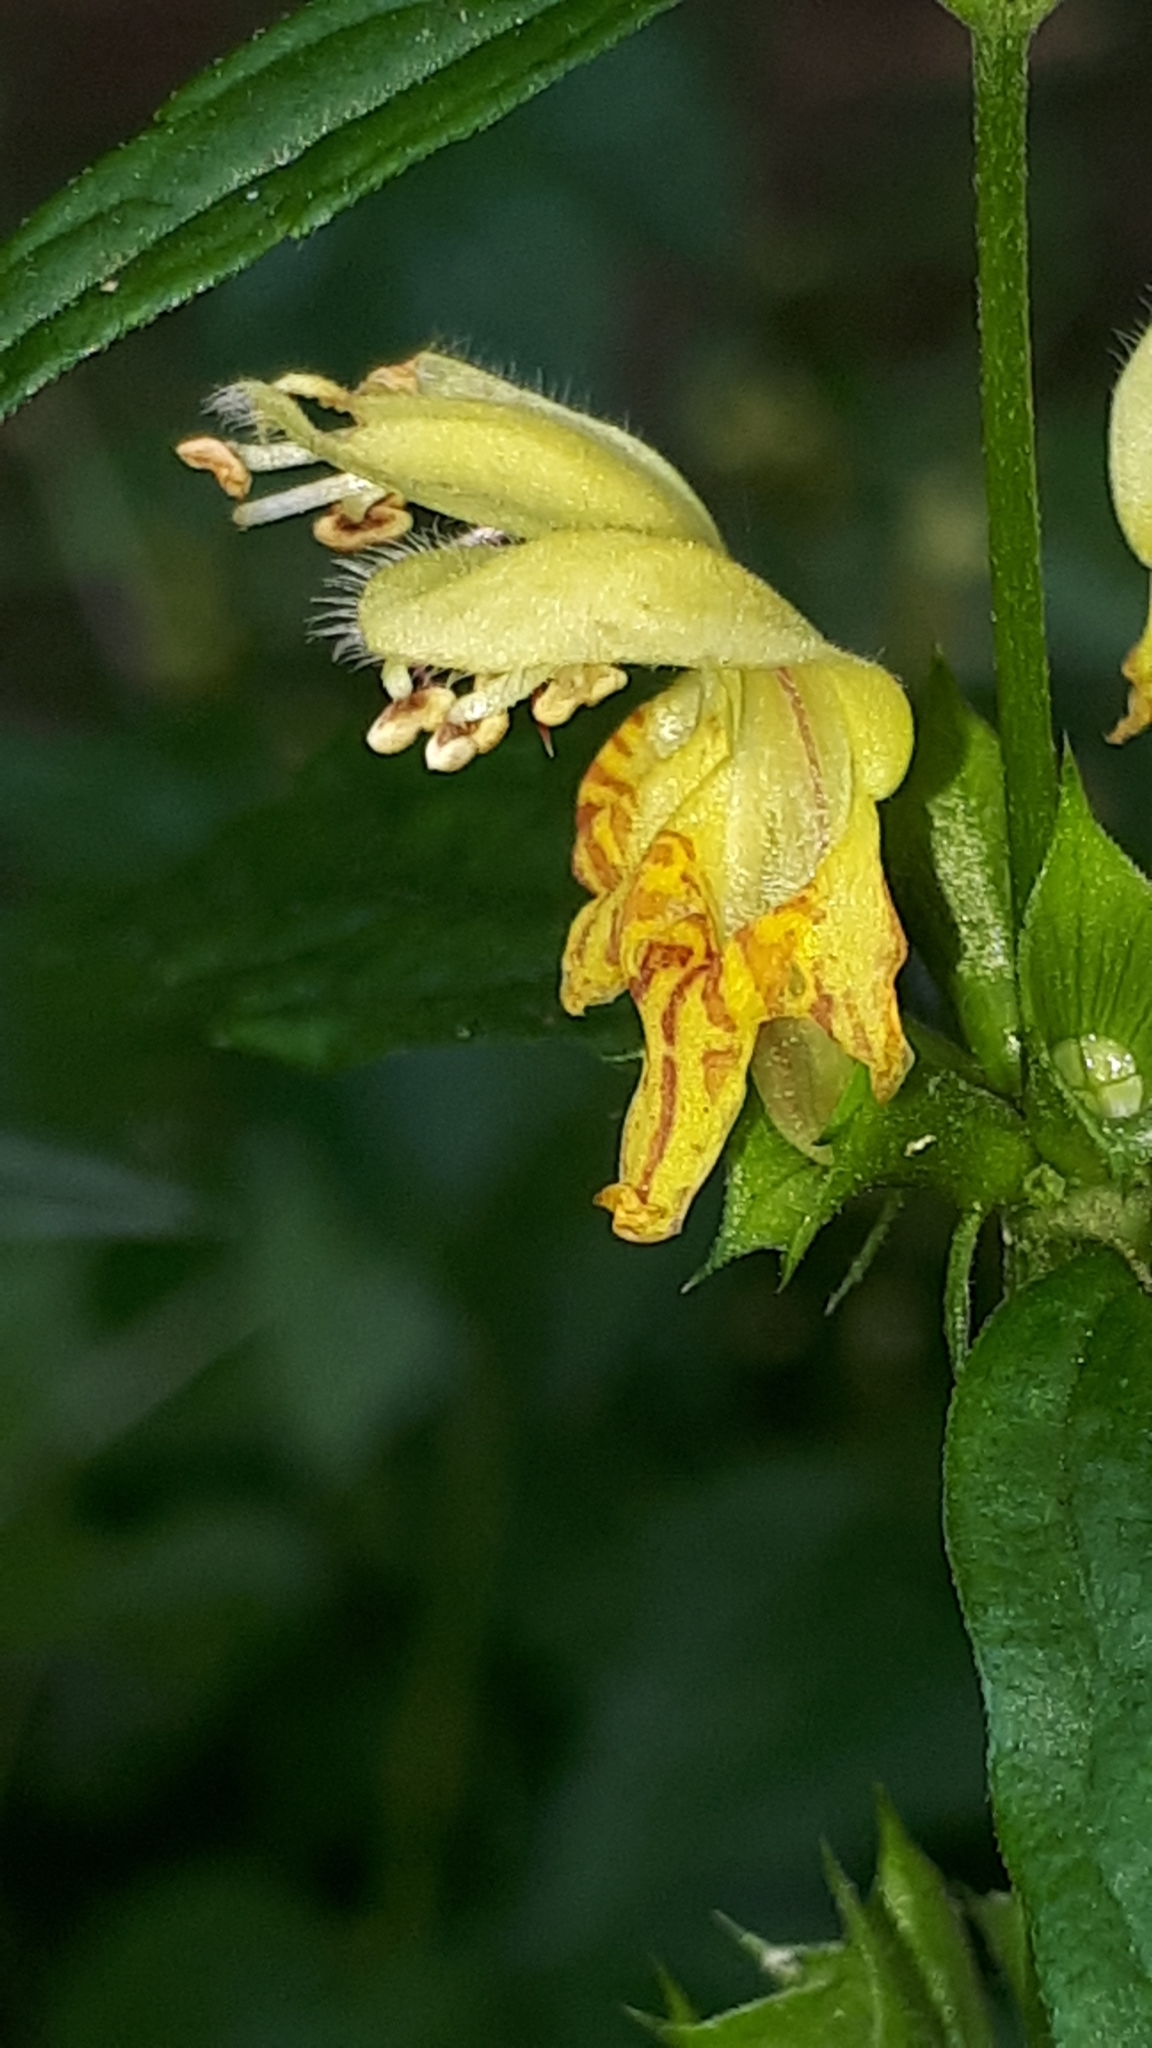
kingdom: Plantae
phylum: Tracheophyta
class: Magnoliopsida
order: Lamiales
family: Lamiaceae
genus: Lamium
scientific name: Lamium galeobdolon
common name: Yellow archangel
